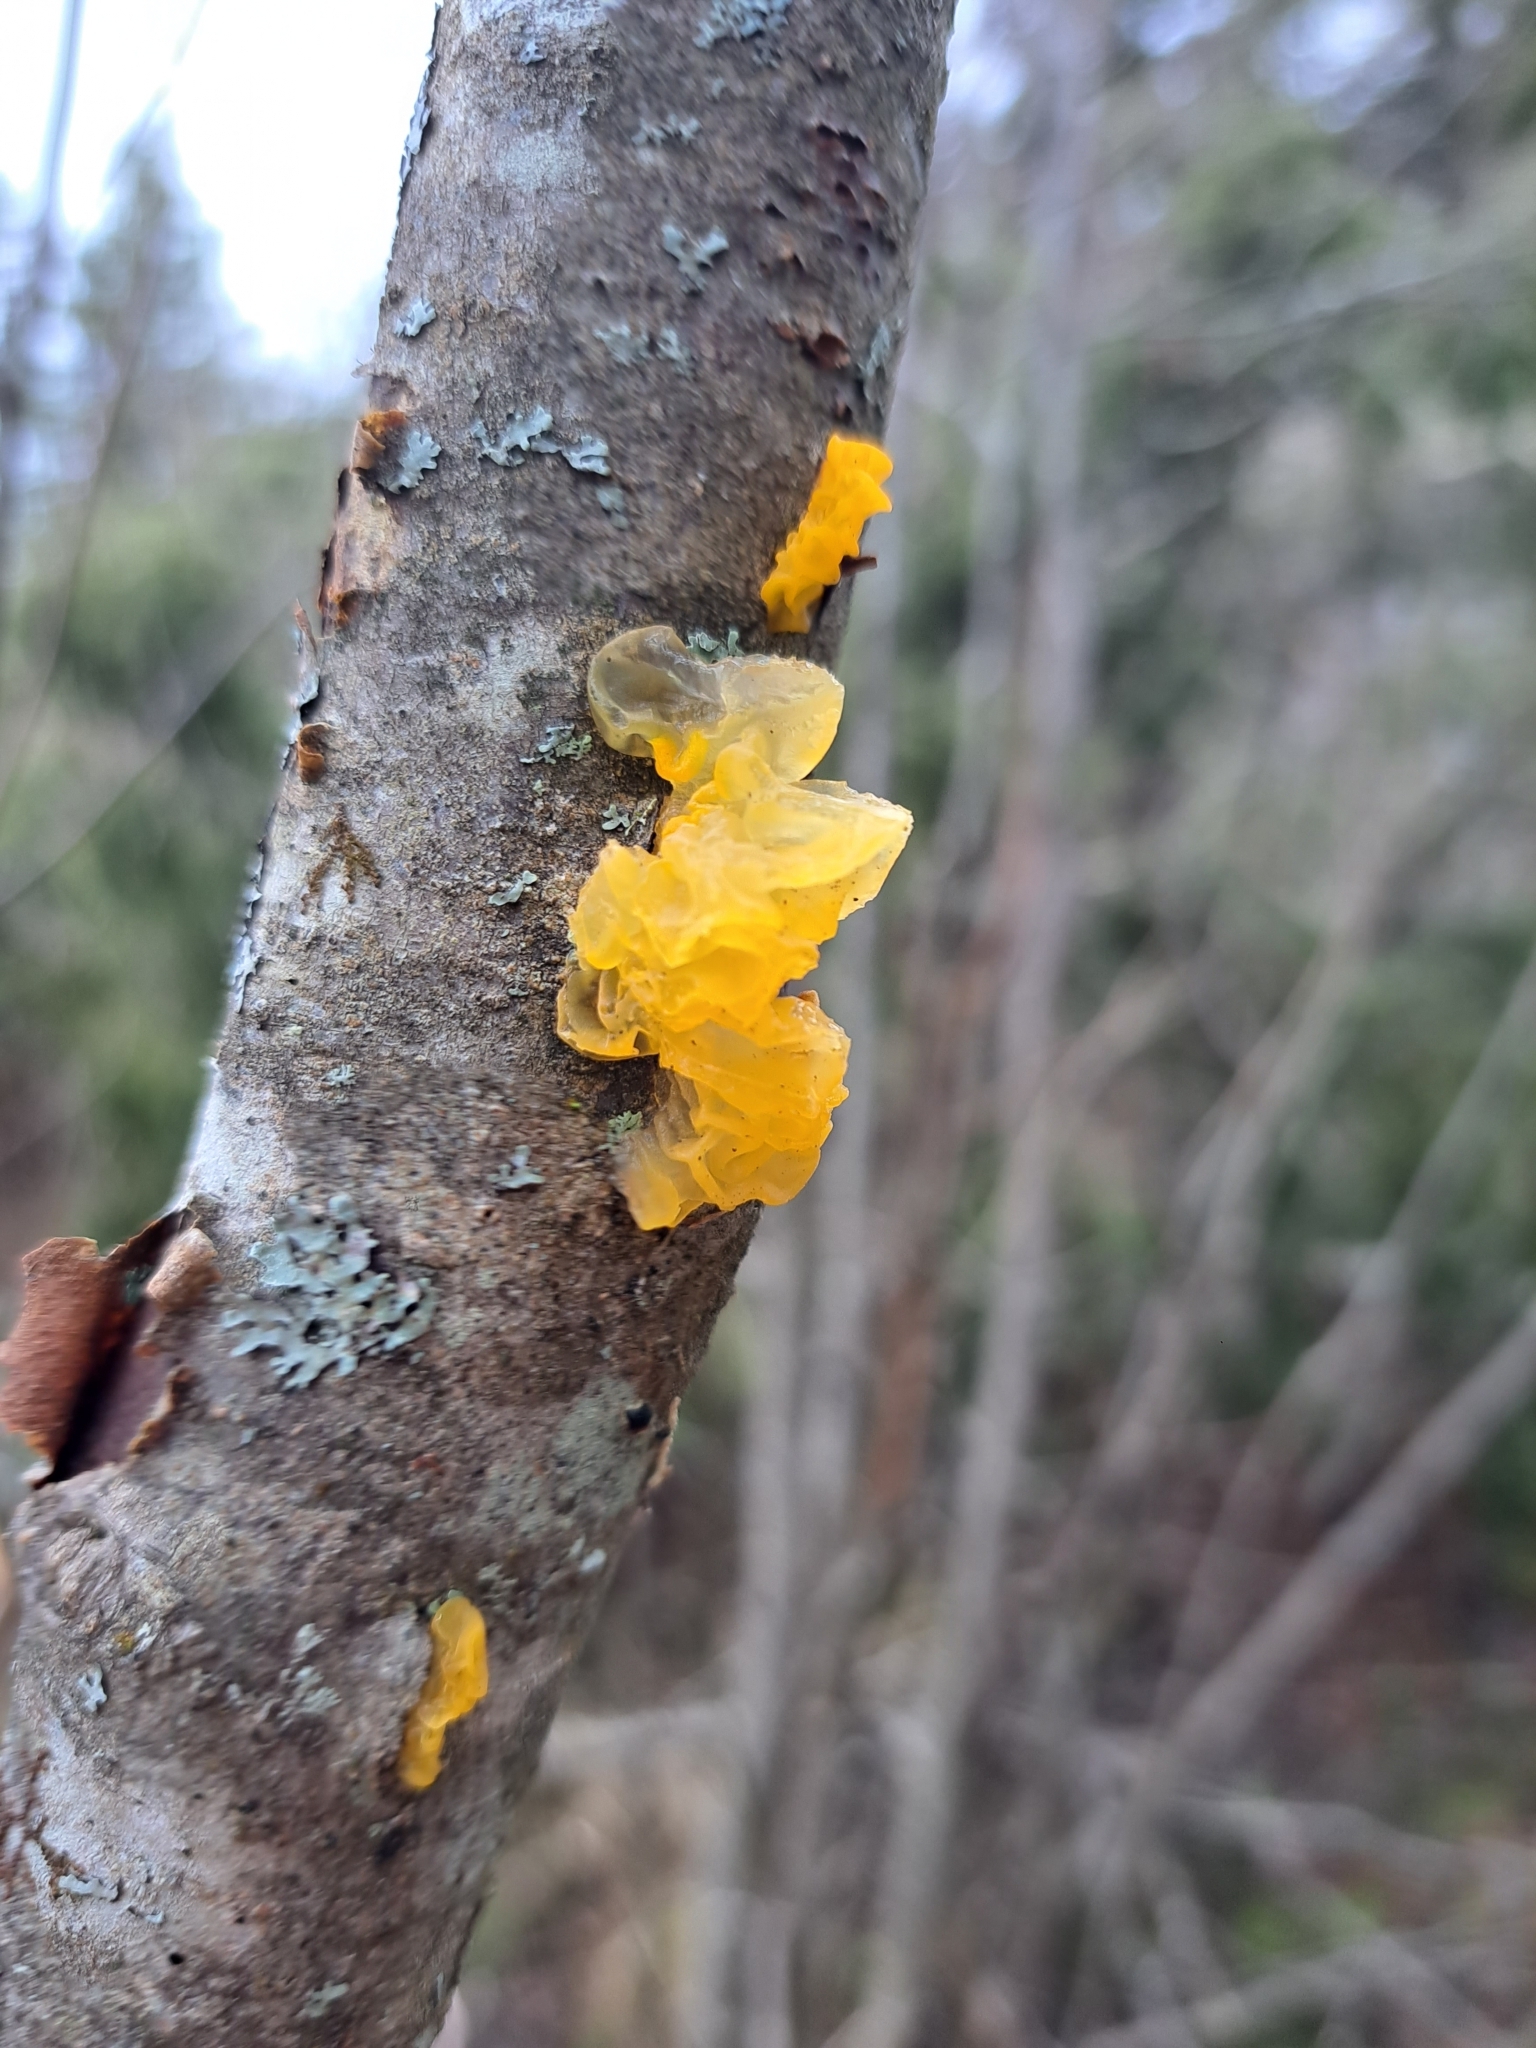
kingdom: Fungi
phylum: Basidiomycota
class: Tremellomycetes
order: Tremellales
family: Tremellaceae
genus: Tremella
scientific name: Tremella mesenterica
